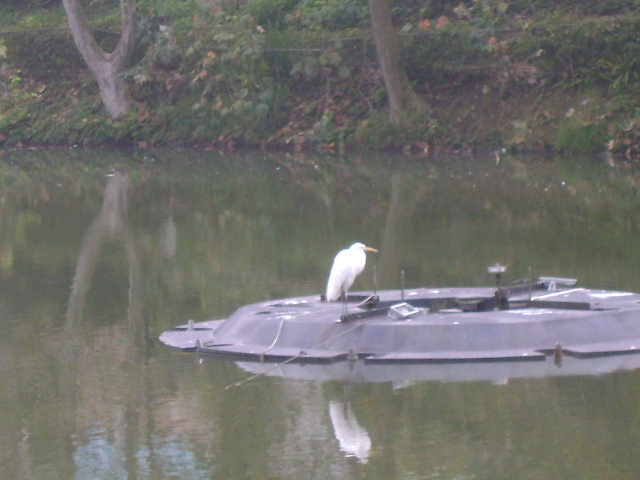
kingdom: Animalia
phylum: Chordata
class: Aves
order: Pelecaniformes
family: Ardeidae
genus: Ardea
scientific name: Ardea alba
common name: Great egret
